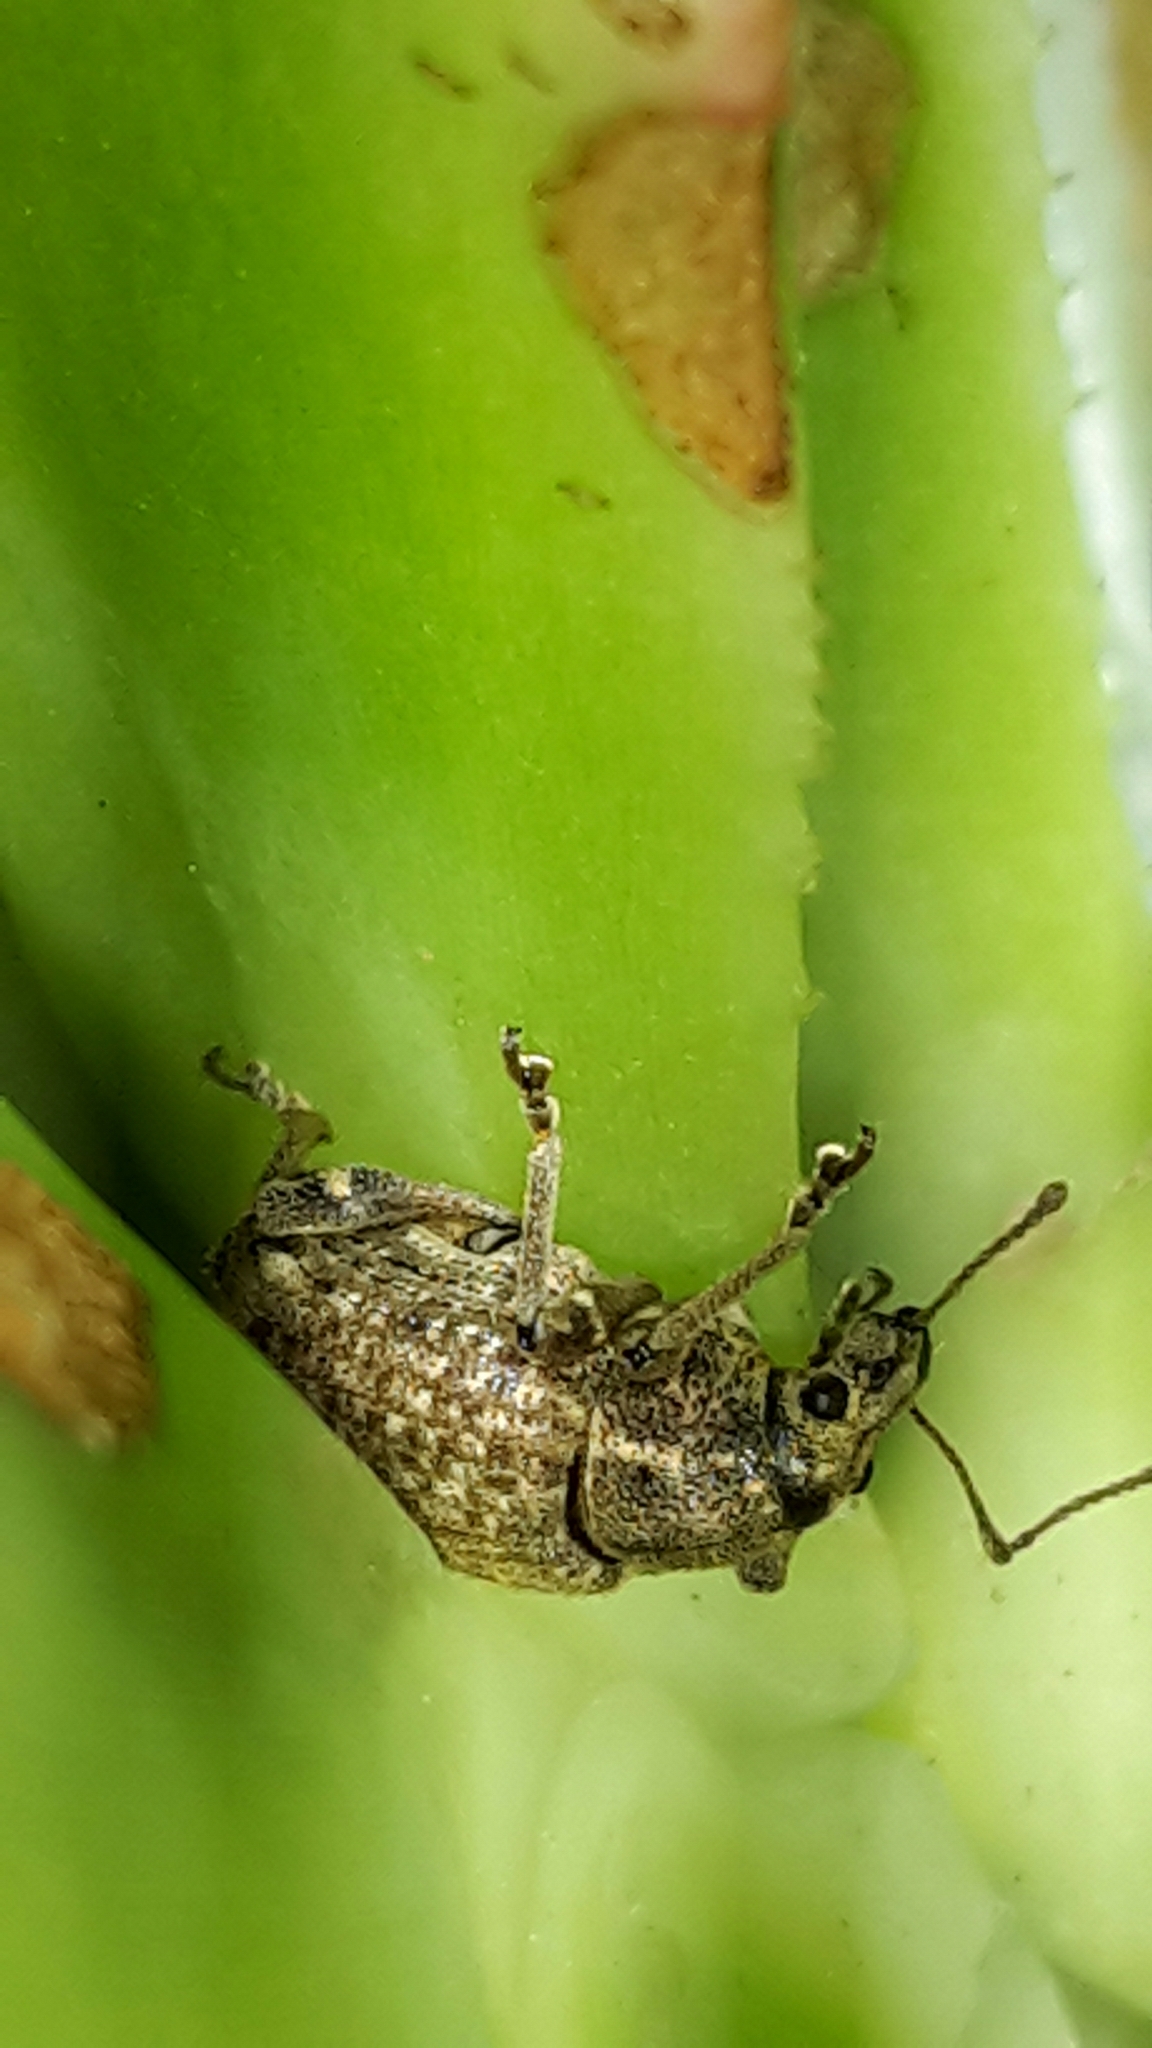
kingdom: Animalia
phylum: Arthropoda
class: Insecta
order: Coleoptera
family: Curculionidae
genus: Phlyctinus
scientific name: Phlyctinus callosus
